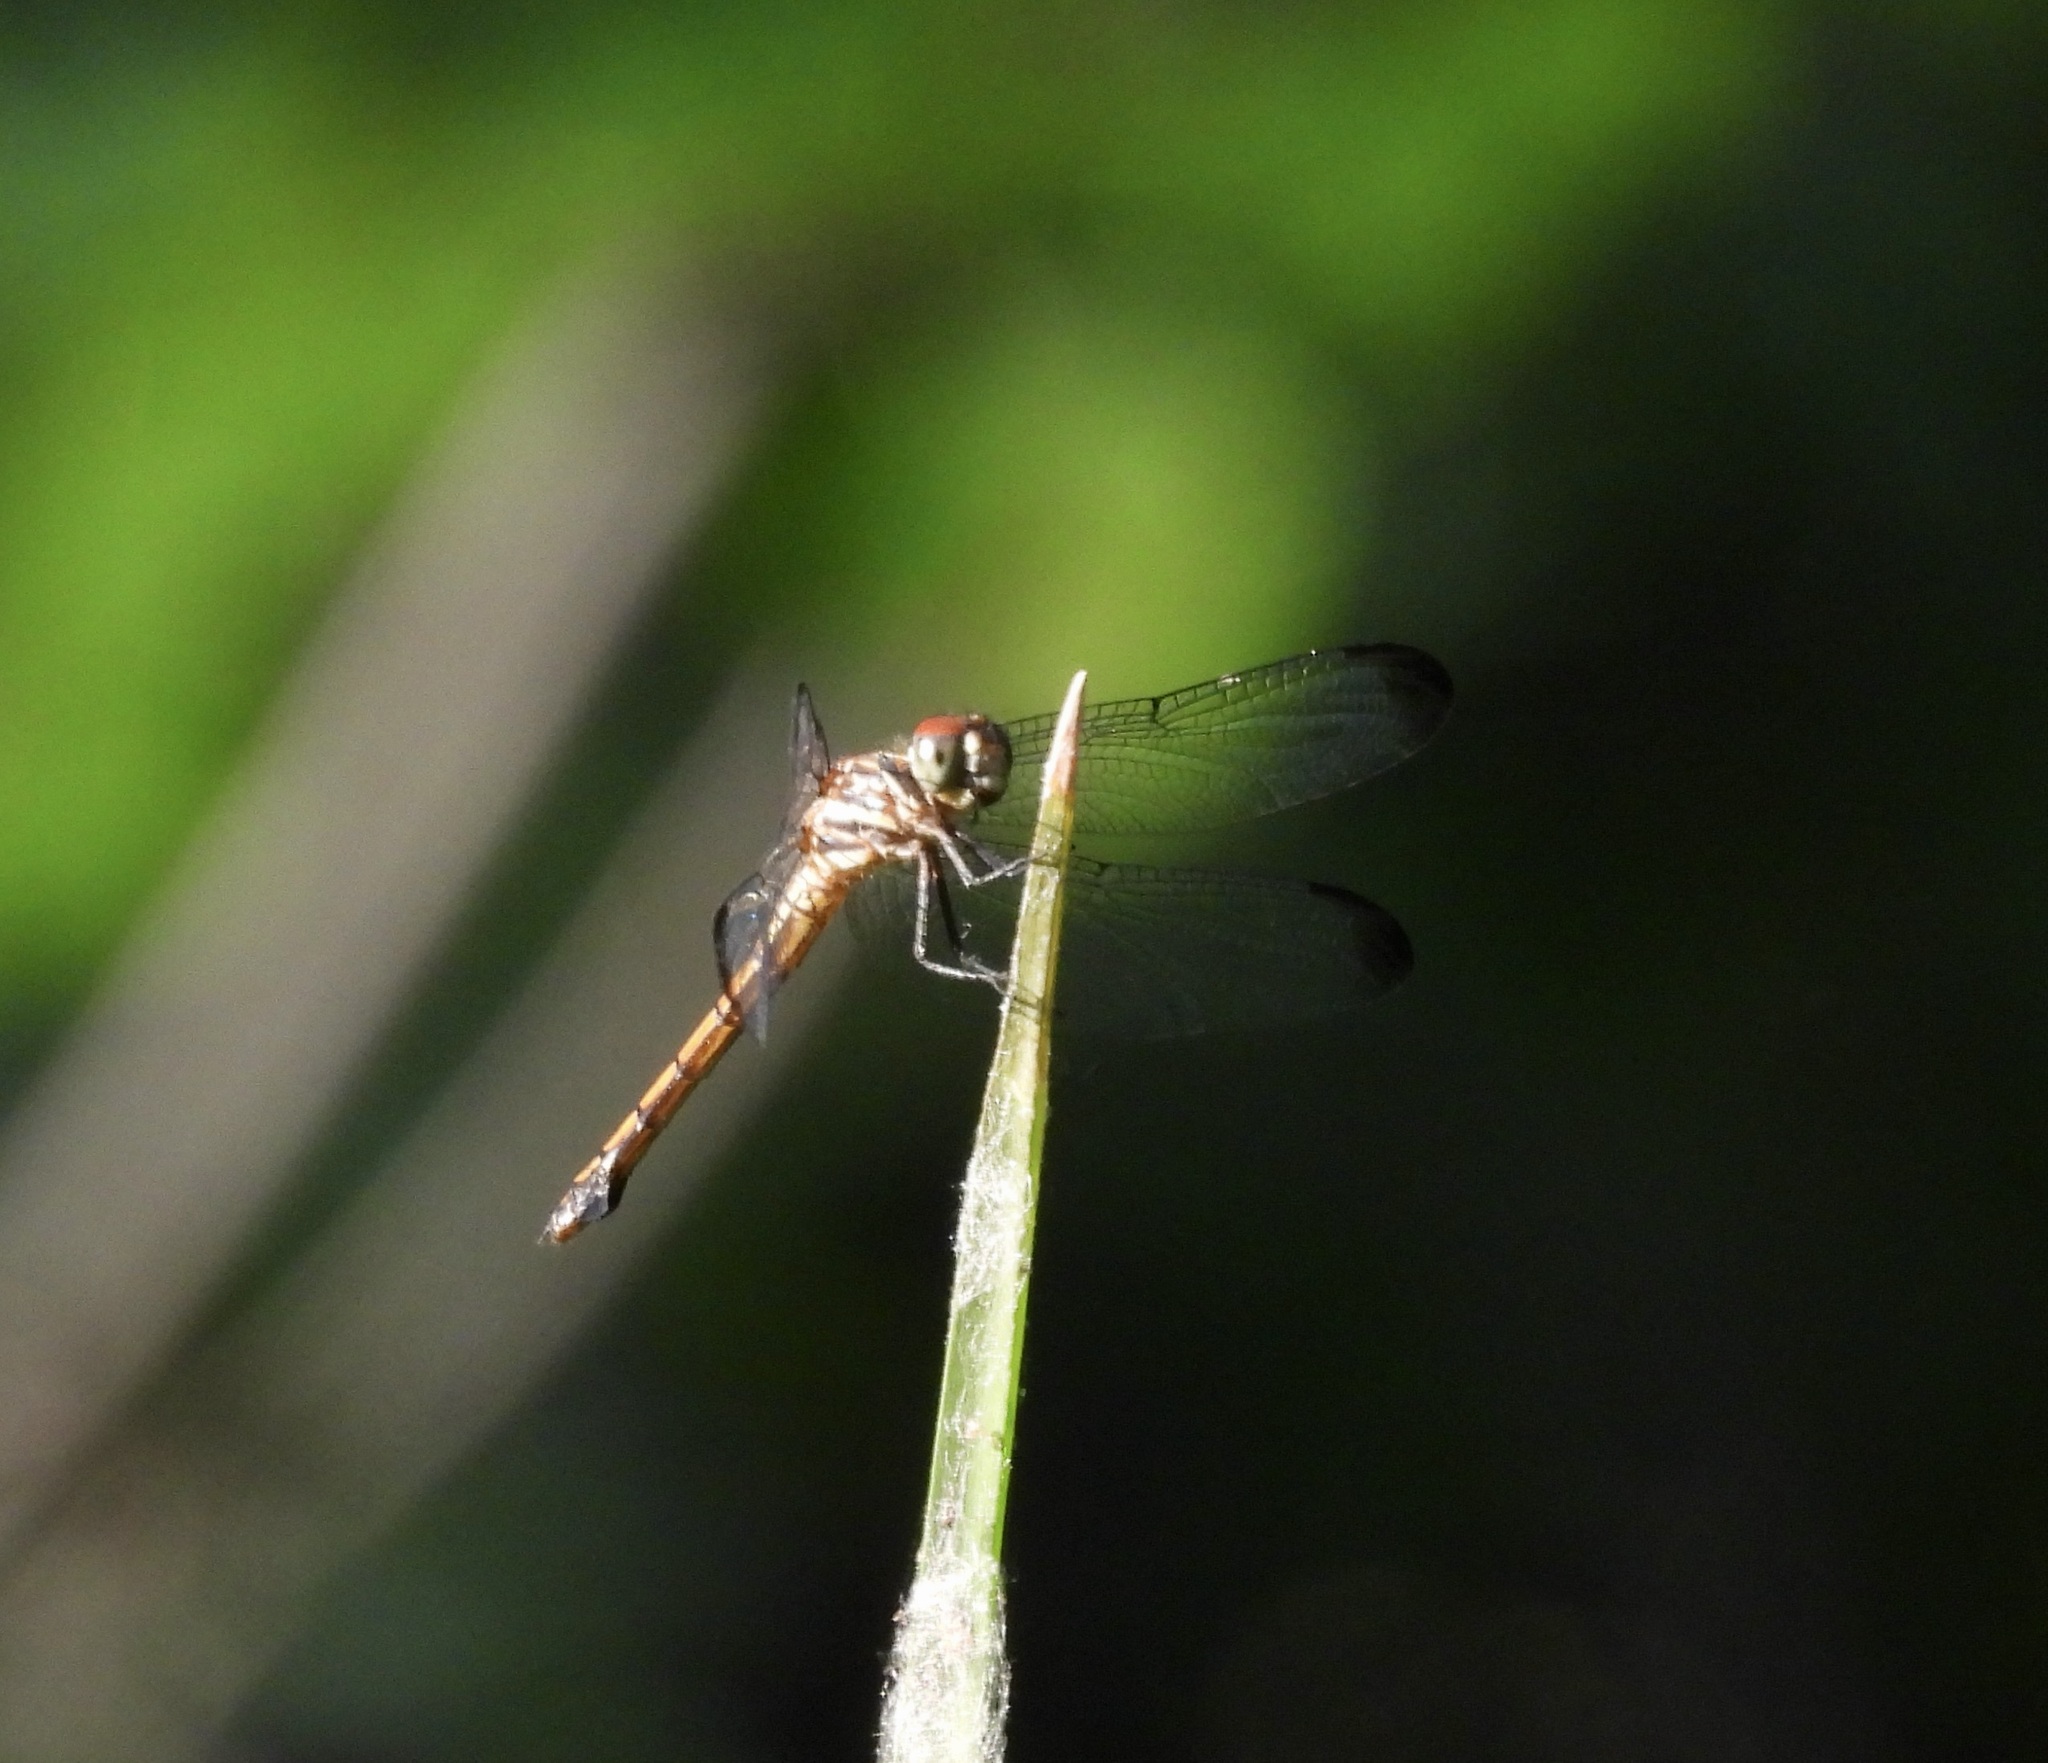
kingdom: Animalia
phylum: Arthropoda
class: Insecta
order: Odonata
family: Libellulidae
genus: Cannaphila
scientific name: Cannaphila insularis
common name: Gray-waisted skimmer
